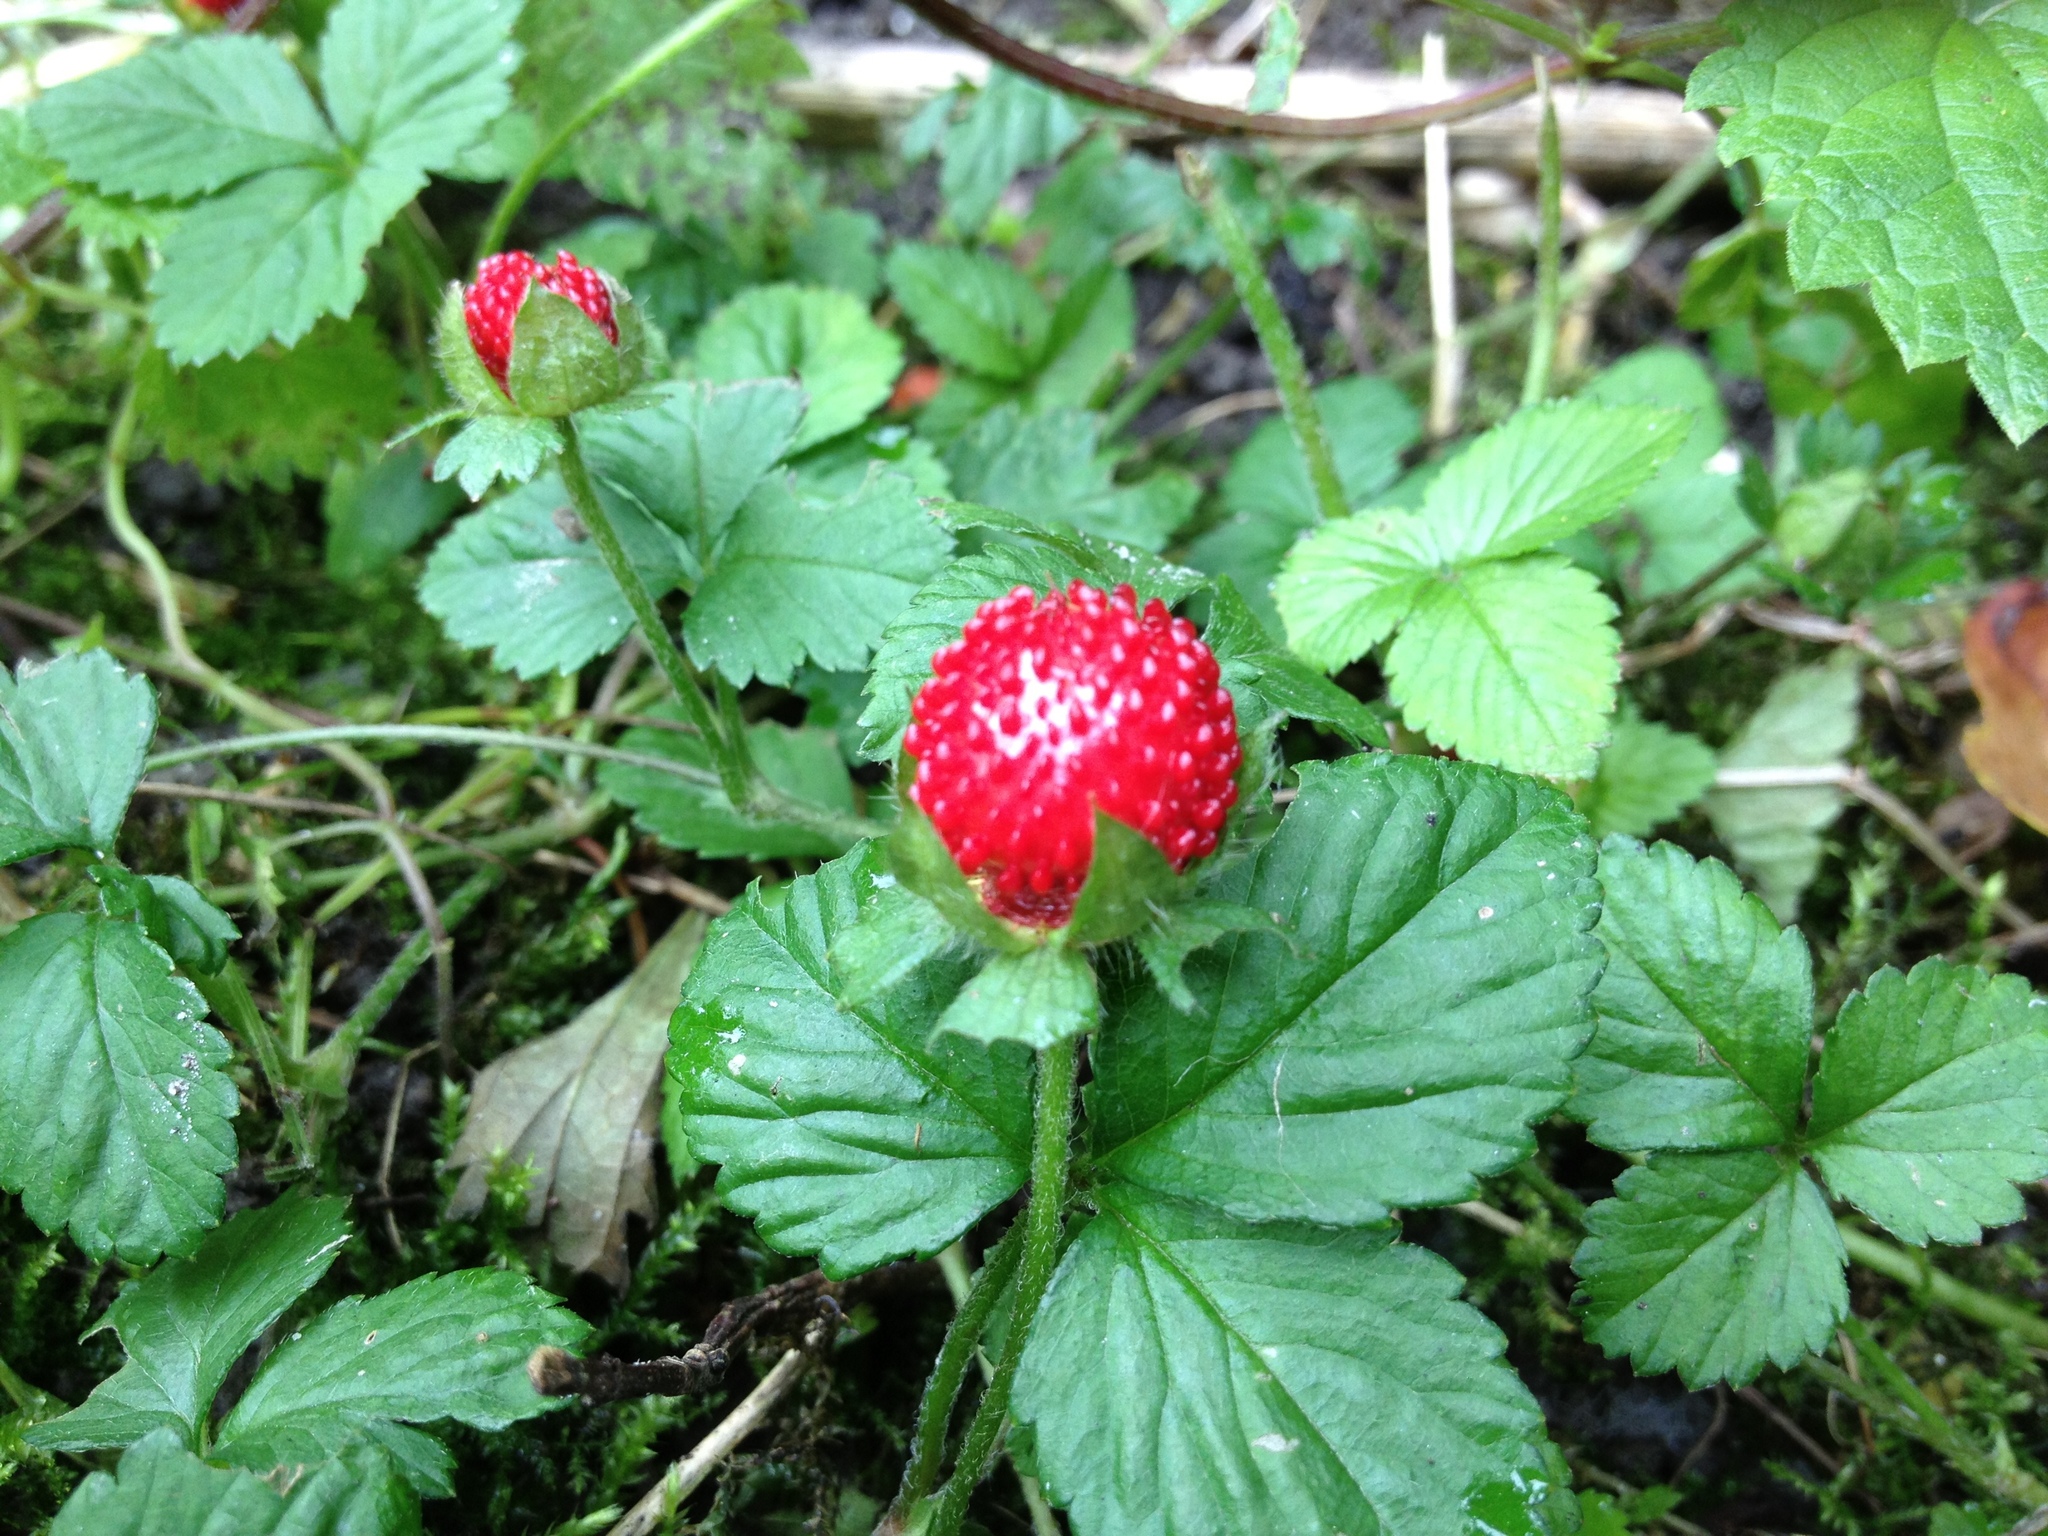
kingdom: Plantae
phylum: Tracheophyta
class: Magnoliopsida
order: Rosales
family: Rosaceae
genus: Potentilla
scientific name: Potentilla indica
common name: Yellow-flowered strawberry
